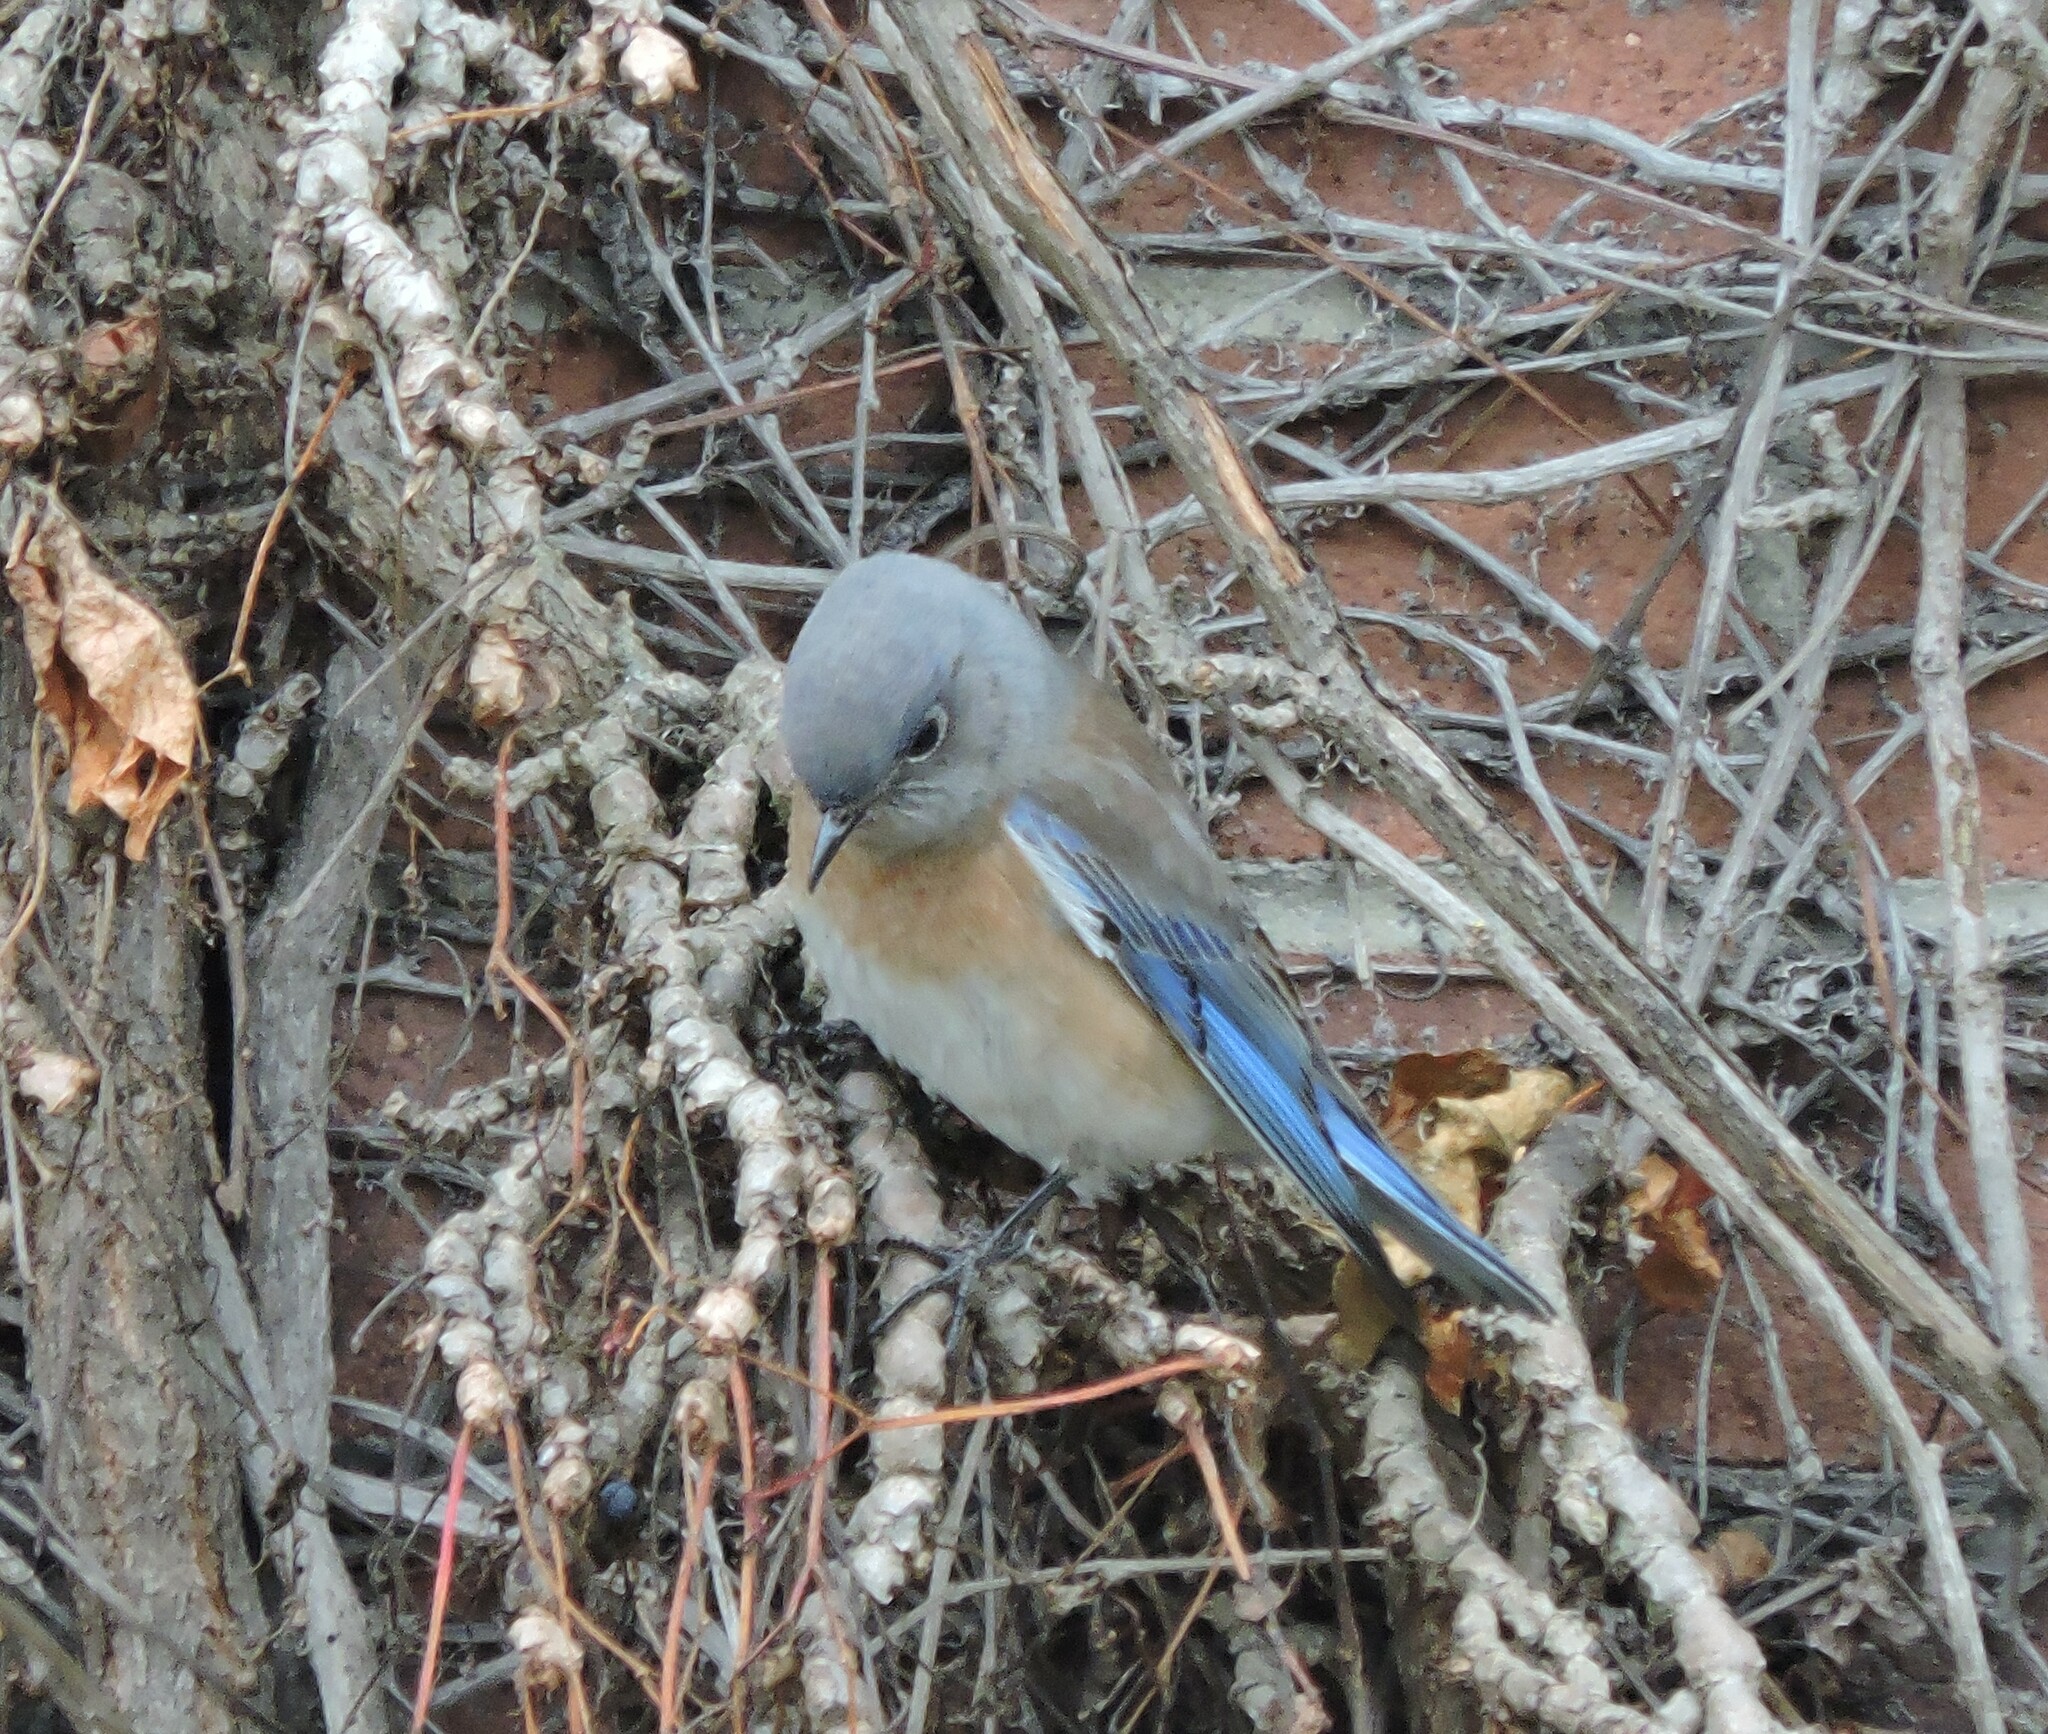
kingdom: Animalia
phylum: Chordata
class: Aves
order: Passeriformes
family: Turdidae
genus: Sialia
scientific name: Sialia mexicana
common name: Western bluebird
